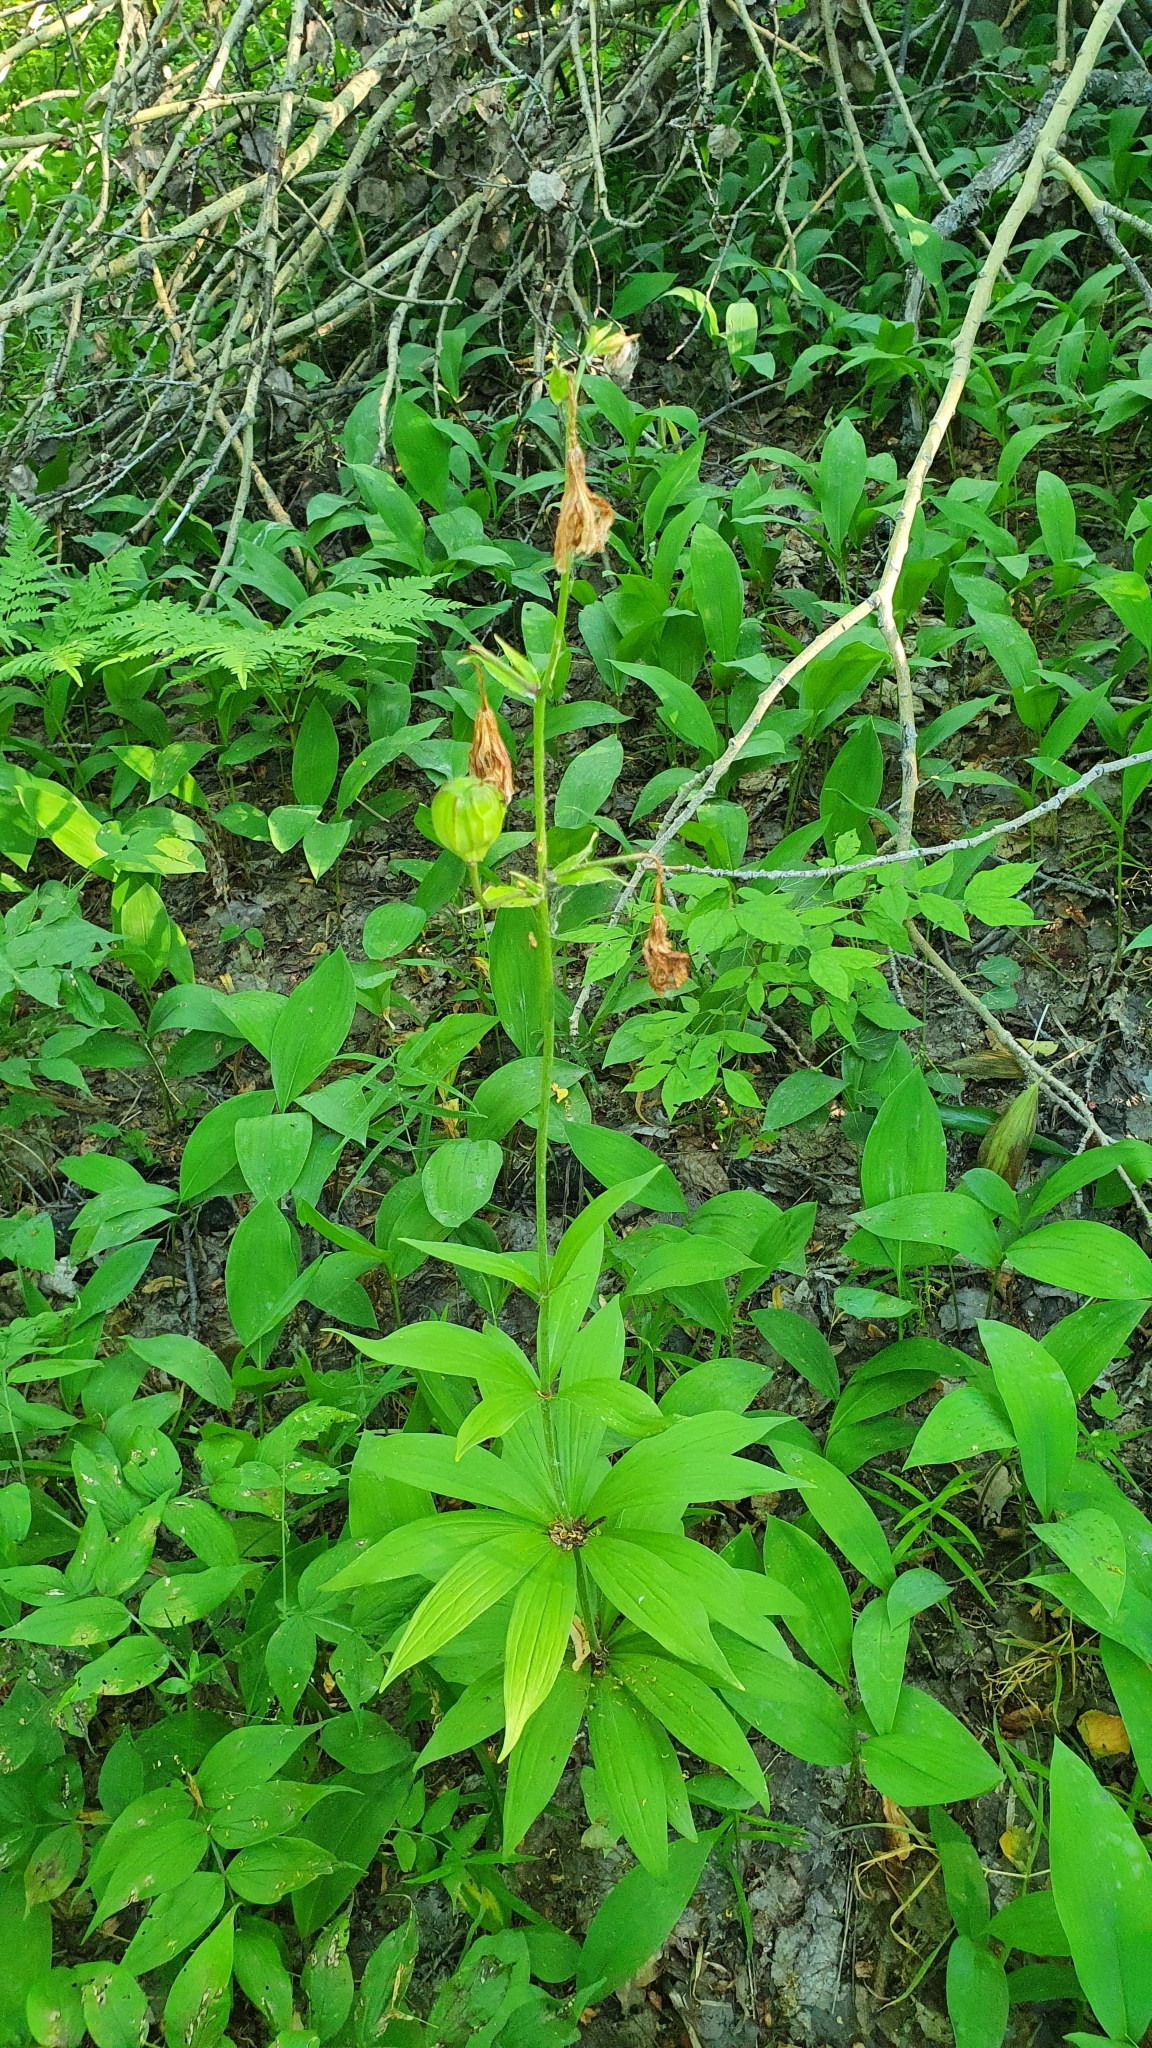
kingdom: Plantae
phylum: Tracheophyta
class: Liliopsida
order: Liliales
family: Liliaceae
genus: Lilium
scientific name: Lilium martagon
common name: Martagon lily
